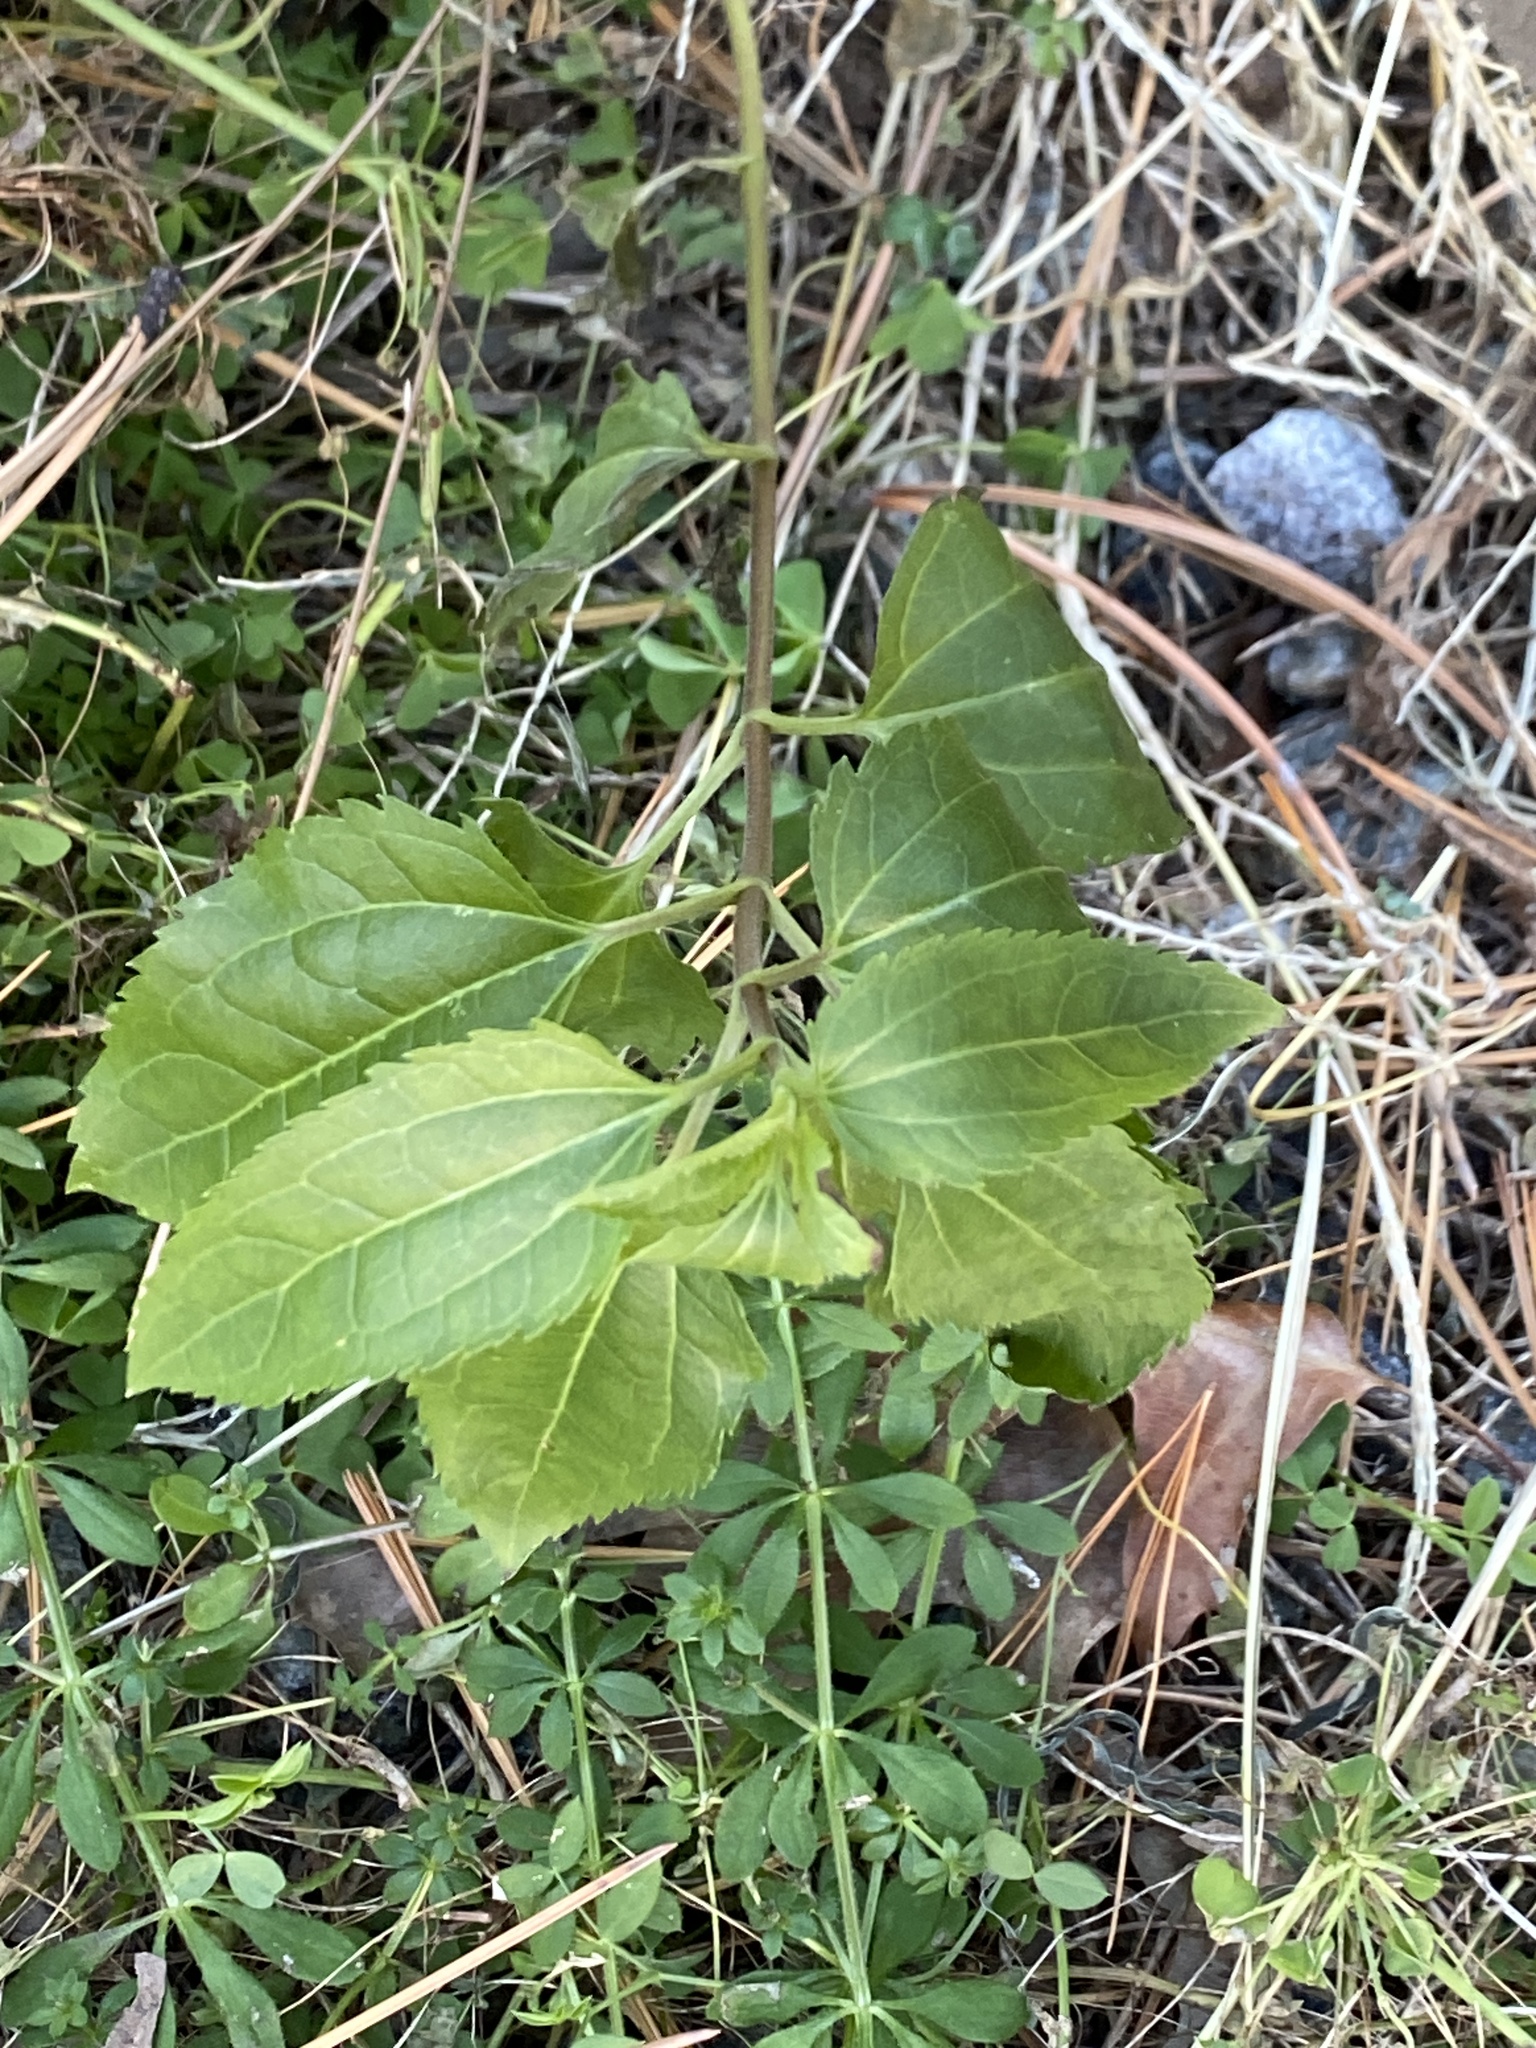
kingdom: Plantae
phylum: Tracheophyta
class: Magnoliopsida
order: Asterales
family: Asteraceae
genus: Eupatorium
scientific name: Eupatorium serotinum
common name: Late boneset
